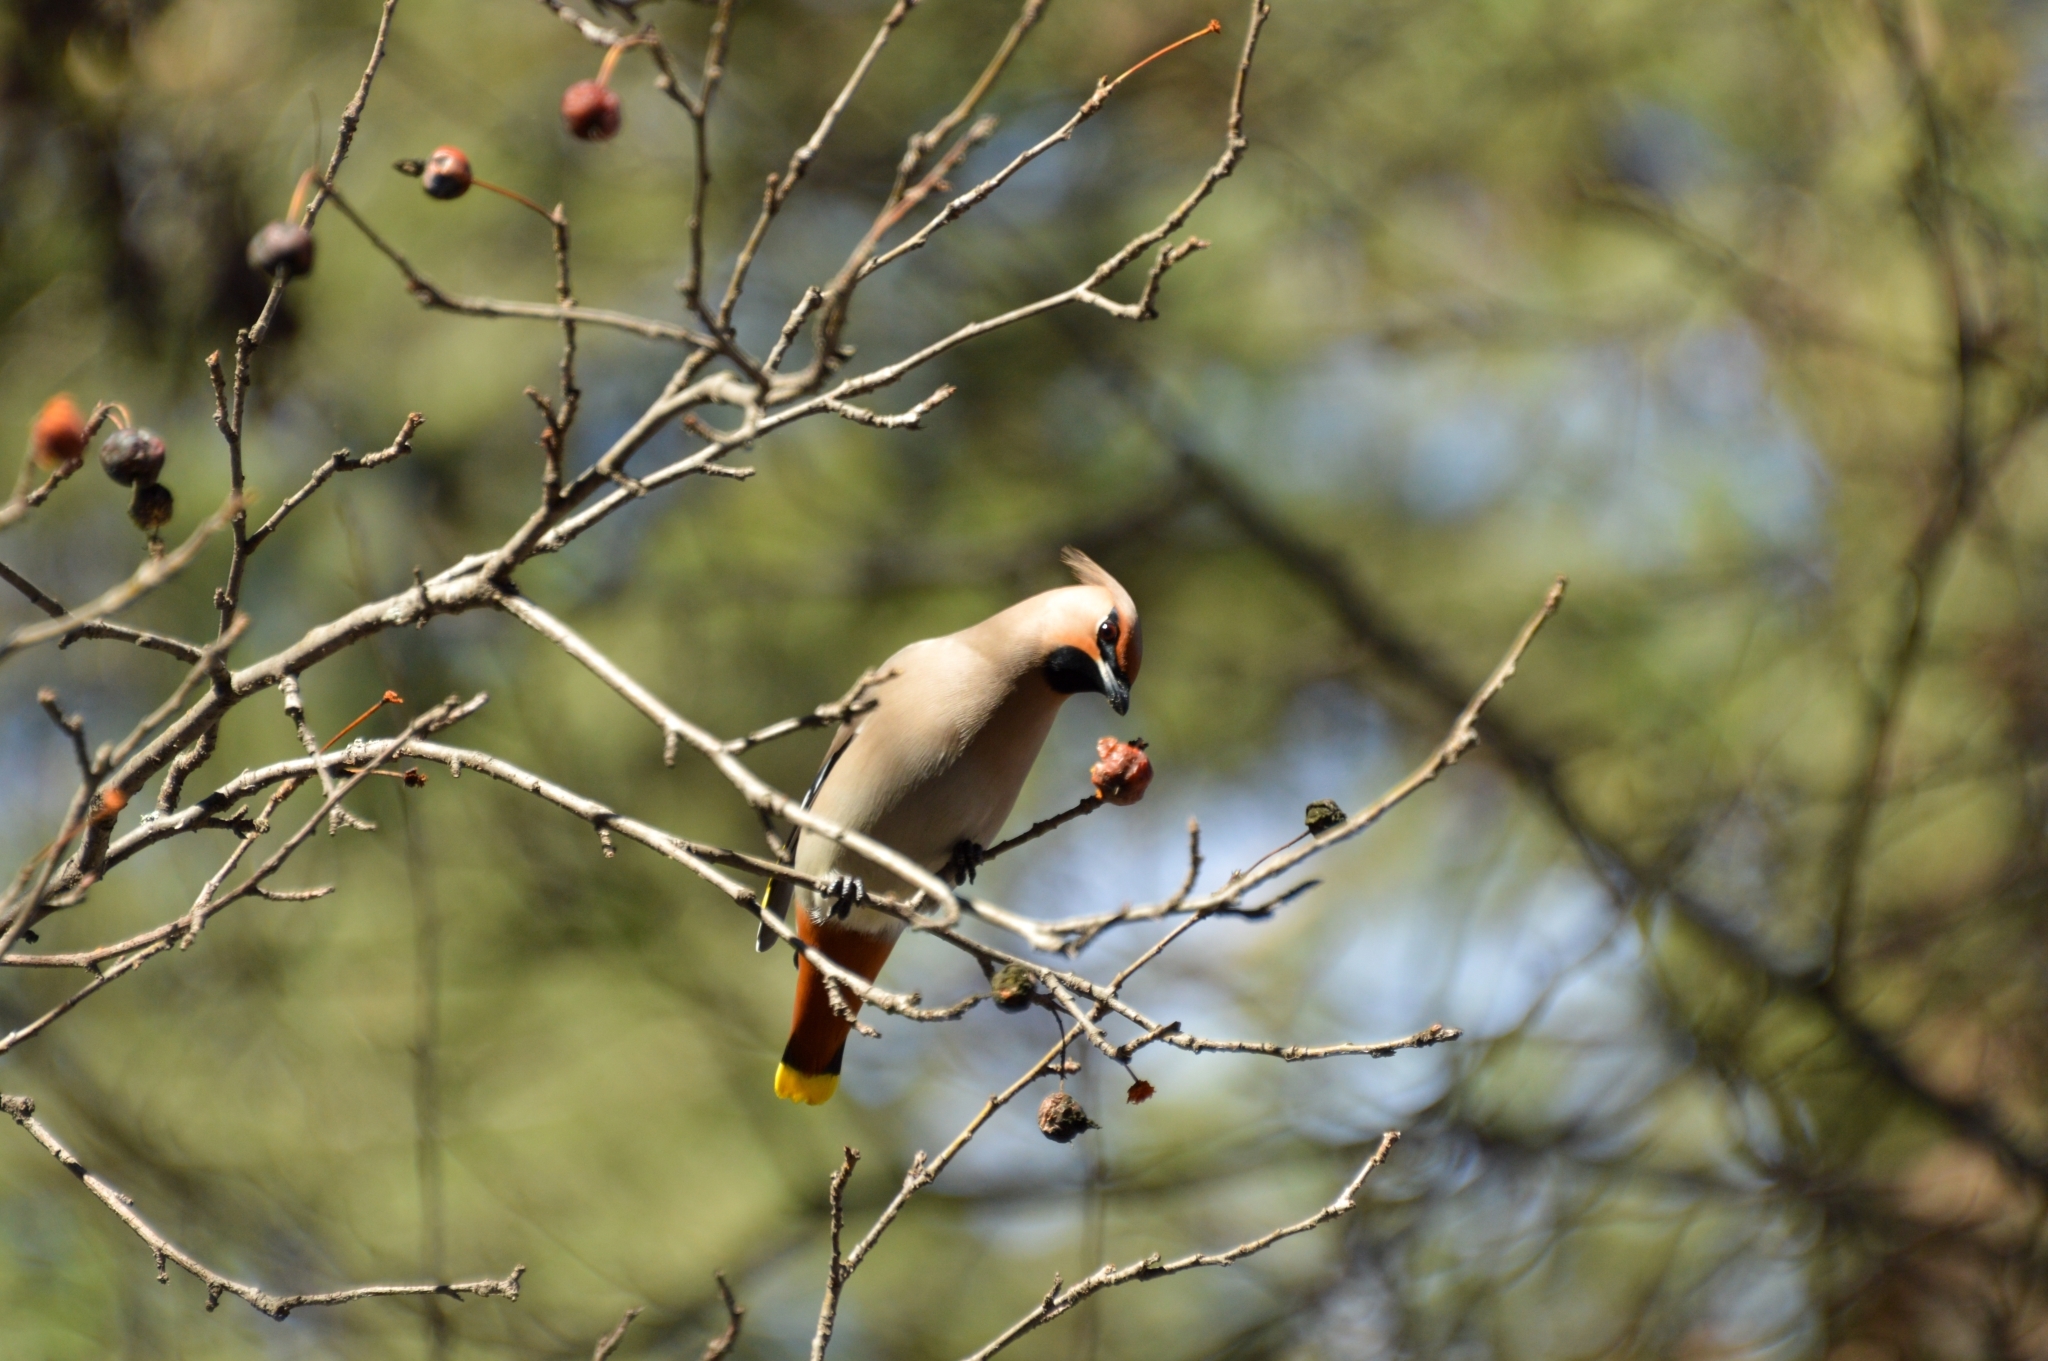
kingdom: Animalia
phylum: Chordata
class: Aves
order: Passeriformes
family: Bombycillidae
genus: Bombycilla
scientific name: Bombycilla garrulus
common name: Bohemian waxwing
